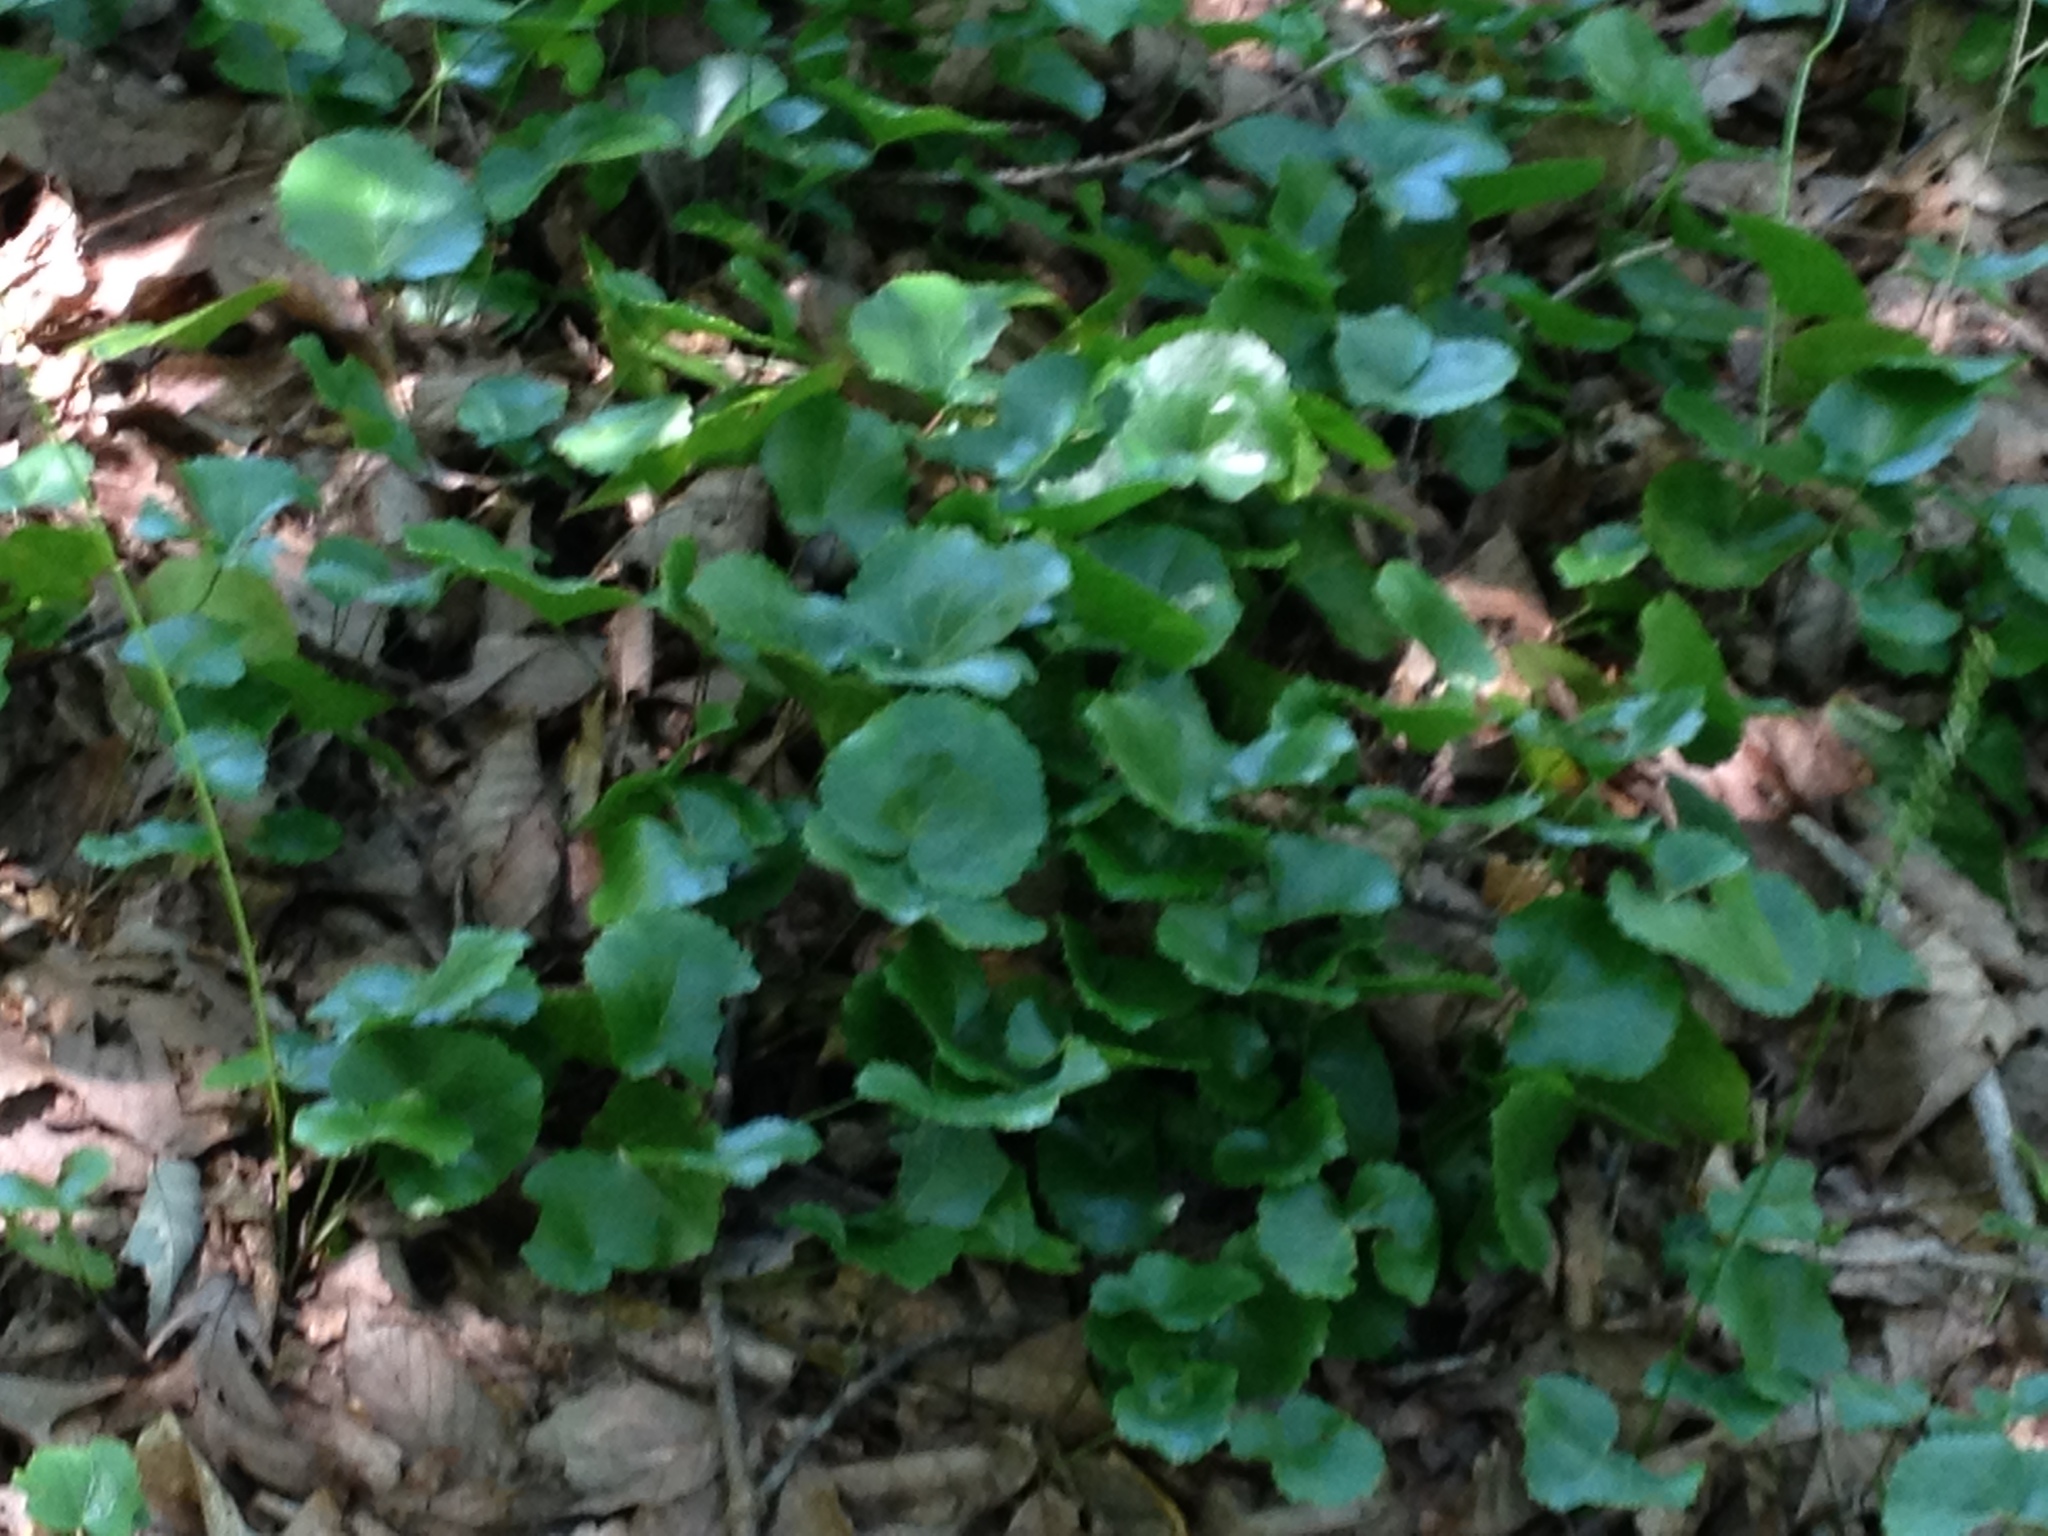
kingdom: Plantae
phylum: Tracheophyta
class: Magnoliopsida
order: Ericales
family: Diapensiaceae
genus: Galax
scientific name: Galax urceolata
